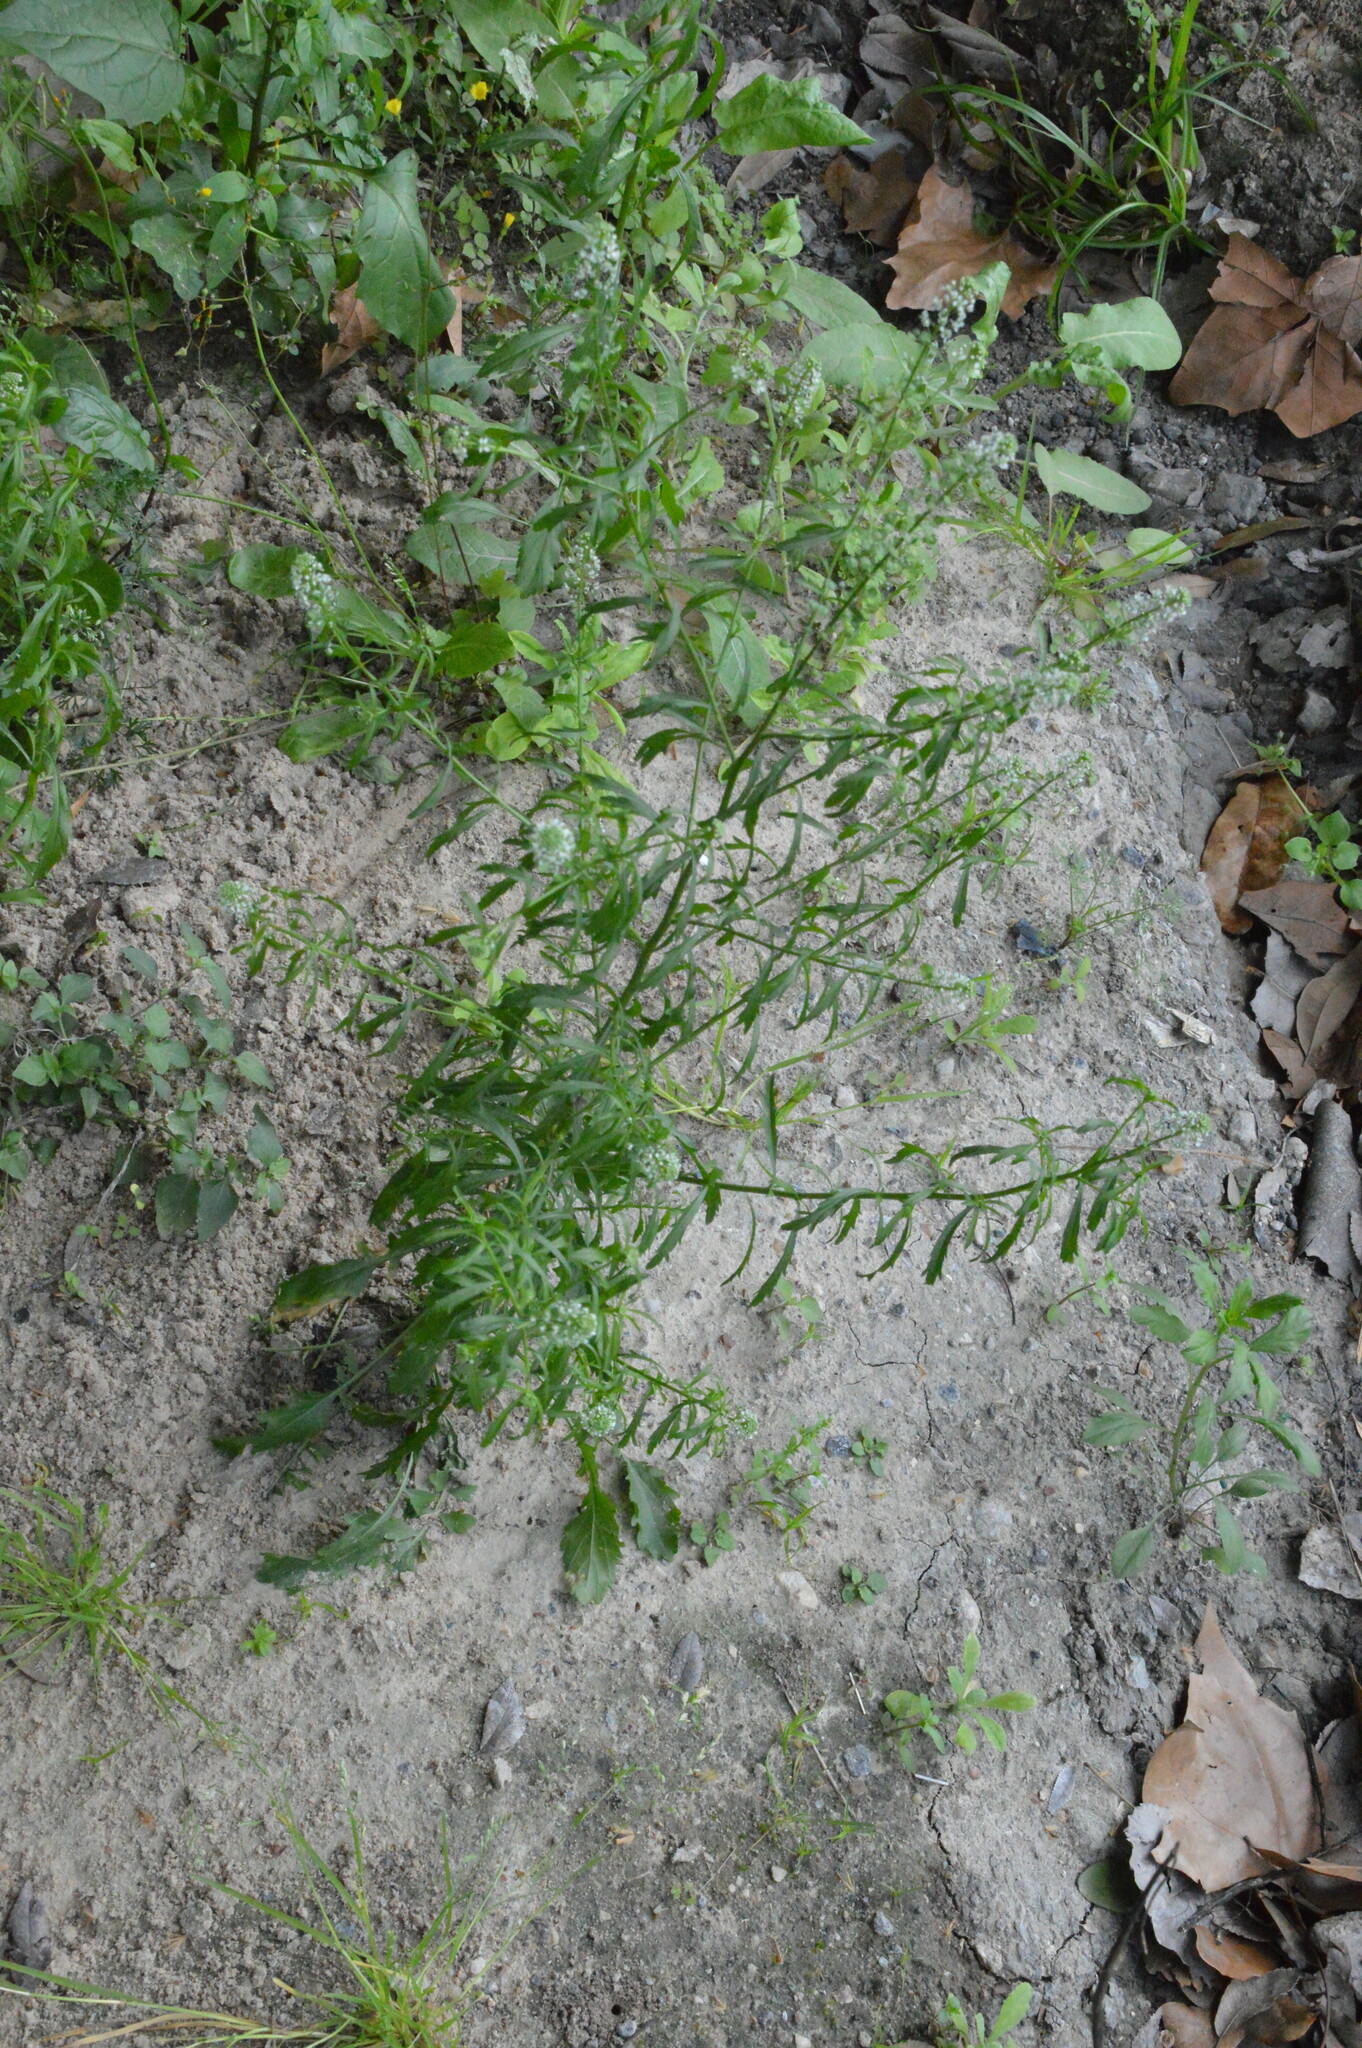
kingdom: Plantae
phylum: Tracheophyta
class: Magnoliopsida
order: Brassicales
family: Brassicaceae
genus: Lepidium
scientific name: Lepidium virginicum
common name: Least pepperwort
